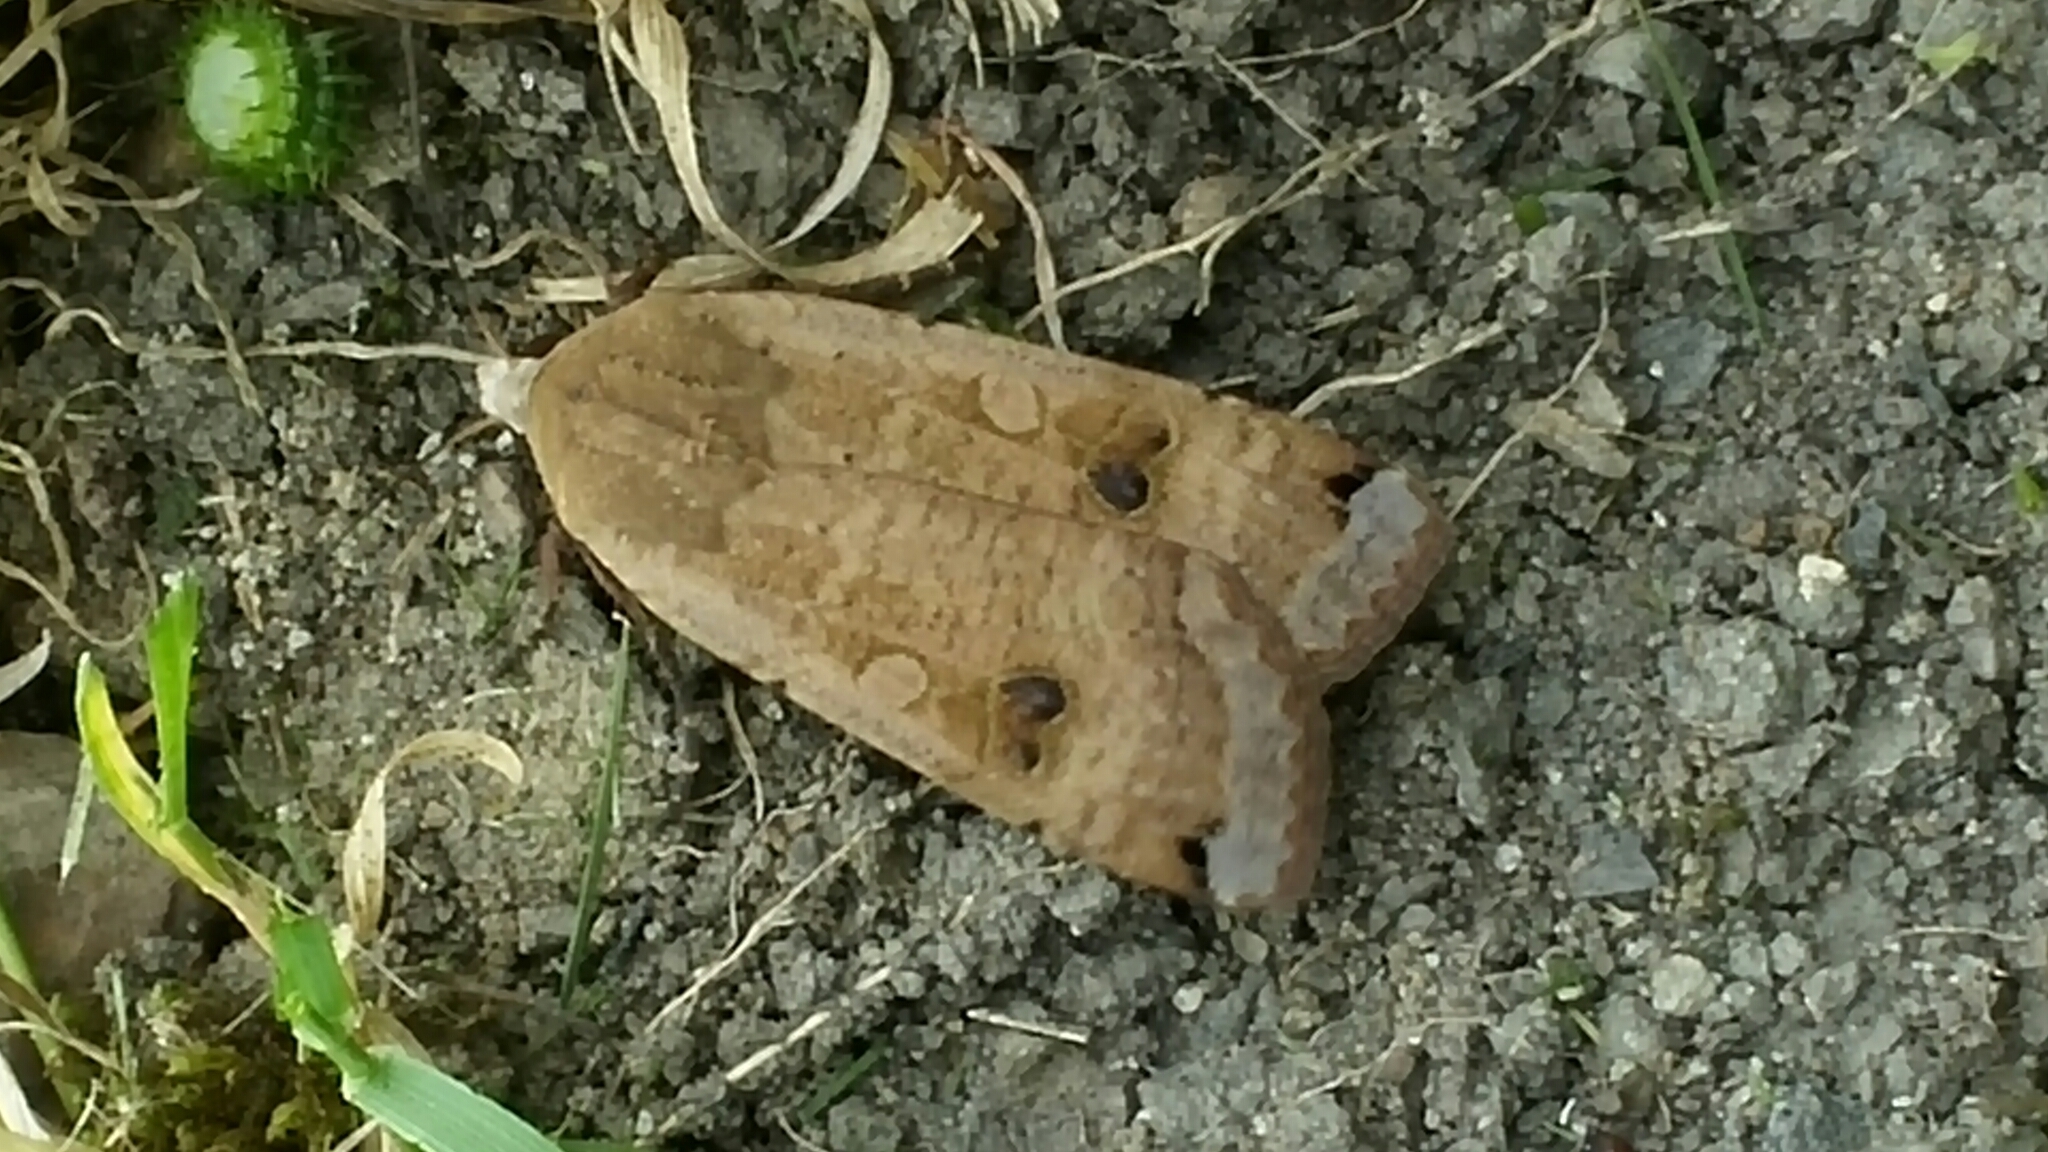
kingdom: Animalia
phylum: Arthropoda
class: Insecta
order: Lepidoptera
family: Noctuidae
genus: Noctua
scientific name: Noctua pronuba
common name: Large yellow underwing
